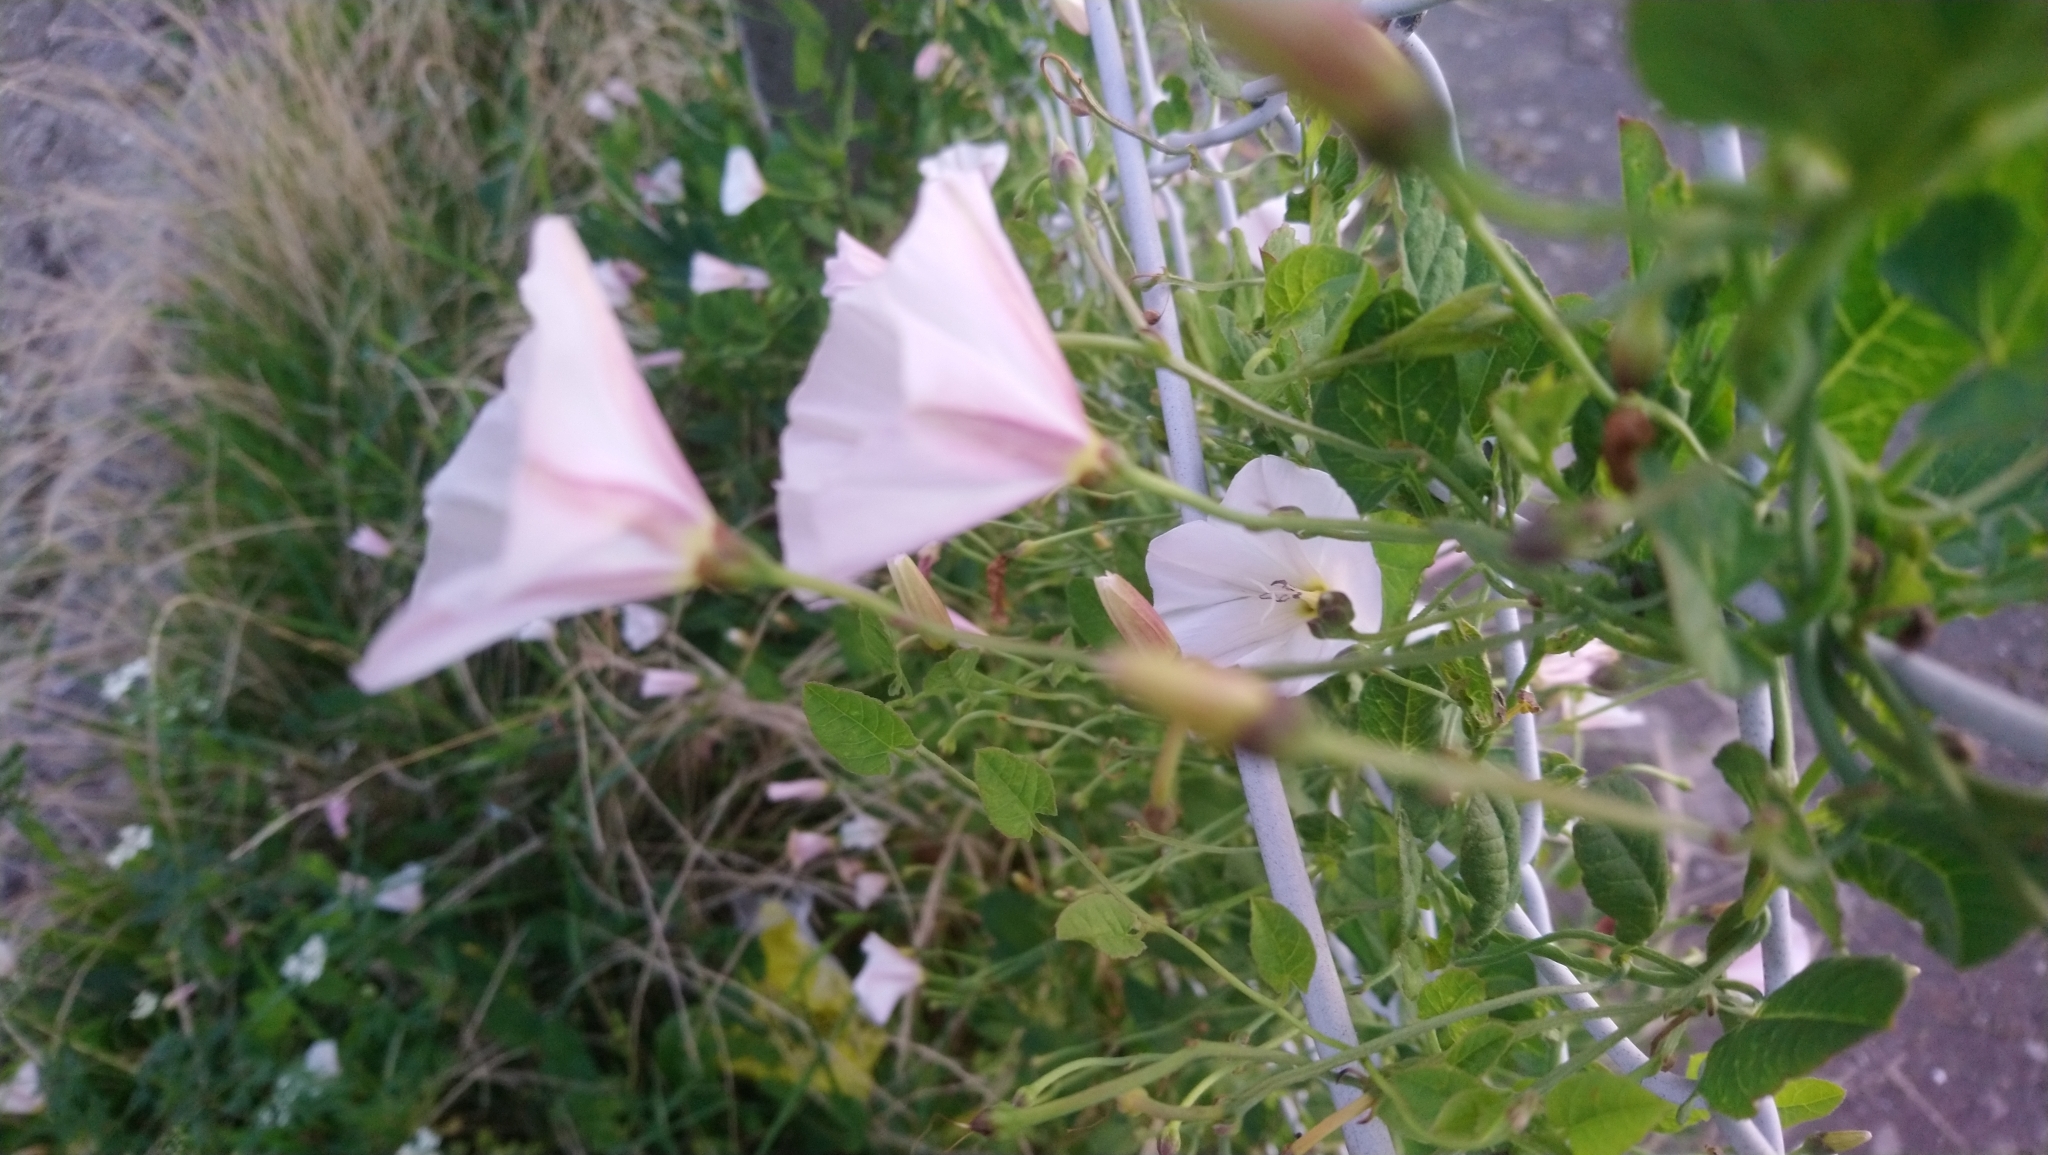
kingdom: Plantae
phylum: Tracheophyta
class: Magnoliopsida
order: Solanales
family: Convolvulaceae
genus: Convolvulus
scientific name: Convolvulus arvensis
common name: Field bindweed
